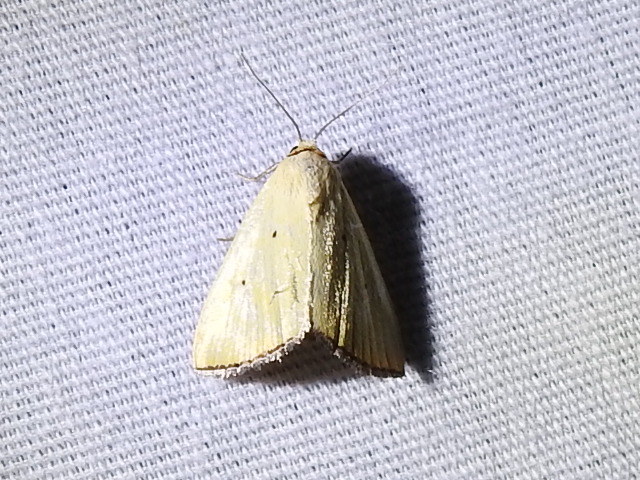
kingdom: Animalia
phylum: Arthropoda
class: Insecta
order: Lepidoptera
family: Noctuidae
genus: Marimatha
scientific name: Marimatha nigrofimbria
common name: Black-bordered lemon moth
